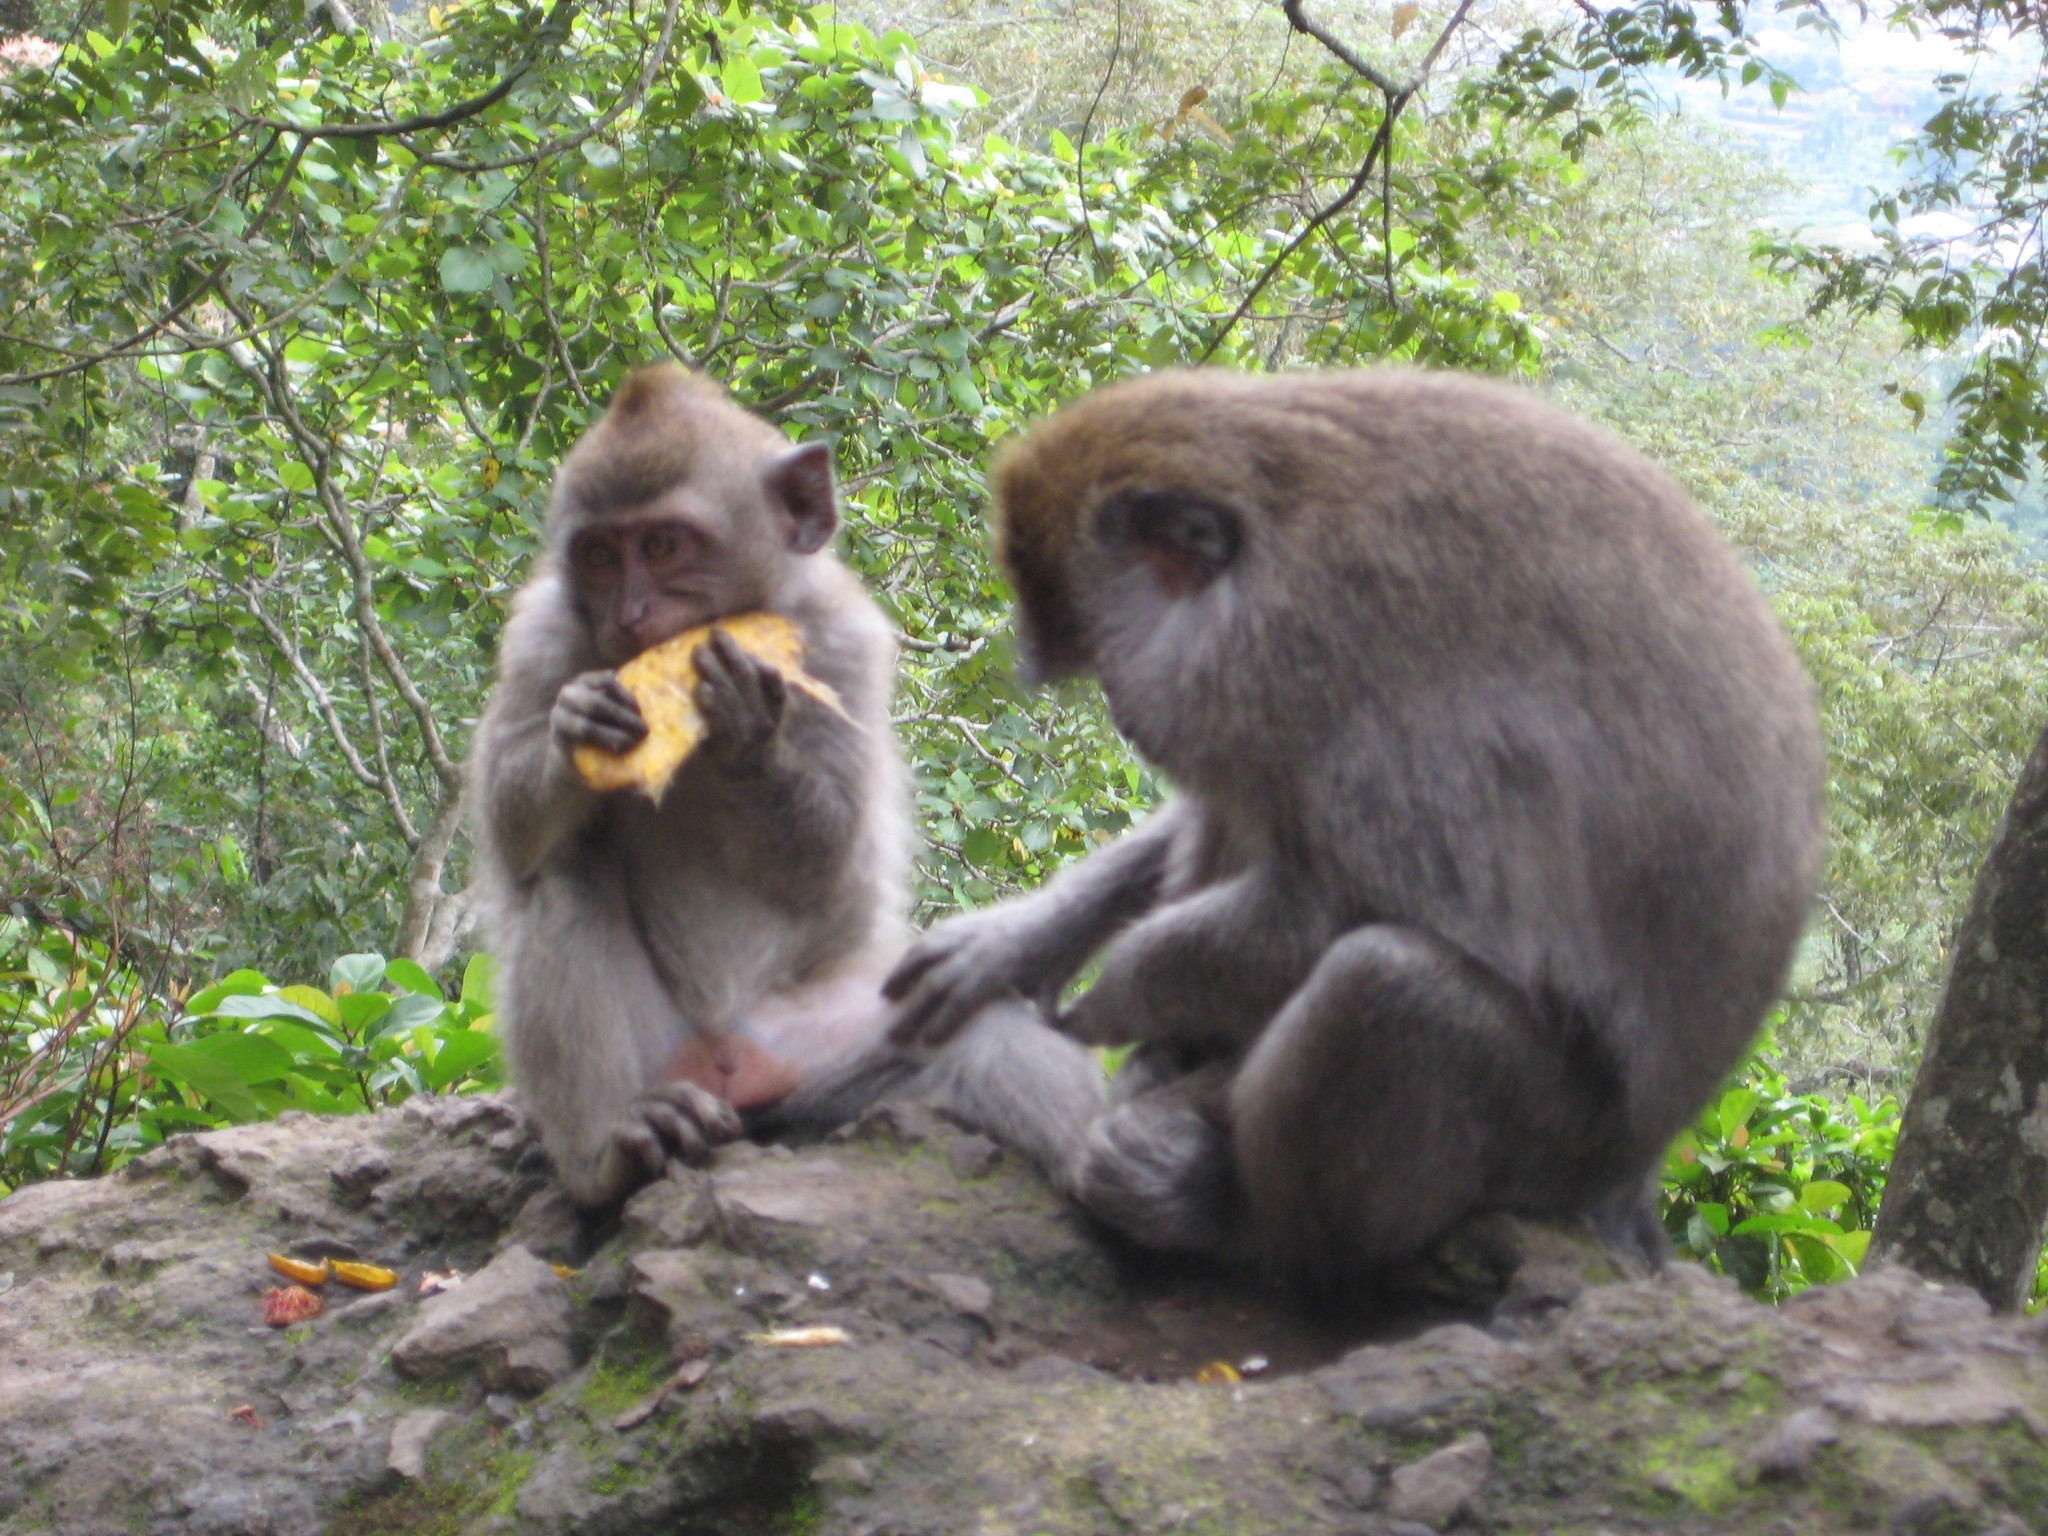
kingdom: Animalia
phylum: Chordata
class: Mammalia
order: Primates
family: Cercopithecidae
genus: Macaca
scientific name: Macaca fascicularis
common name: Crab-eating macaque
